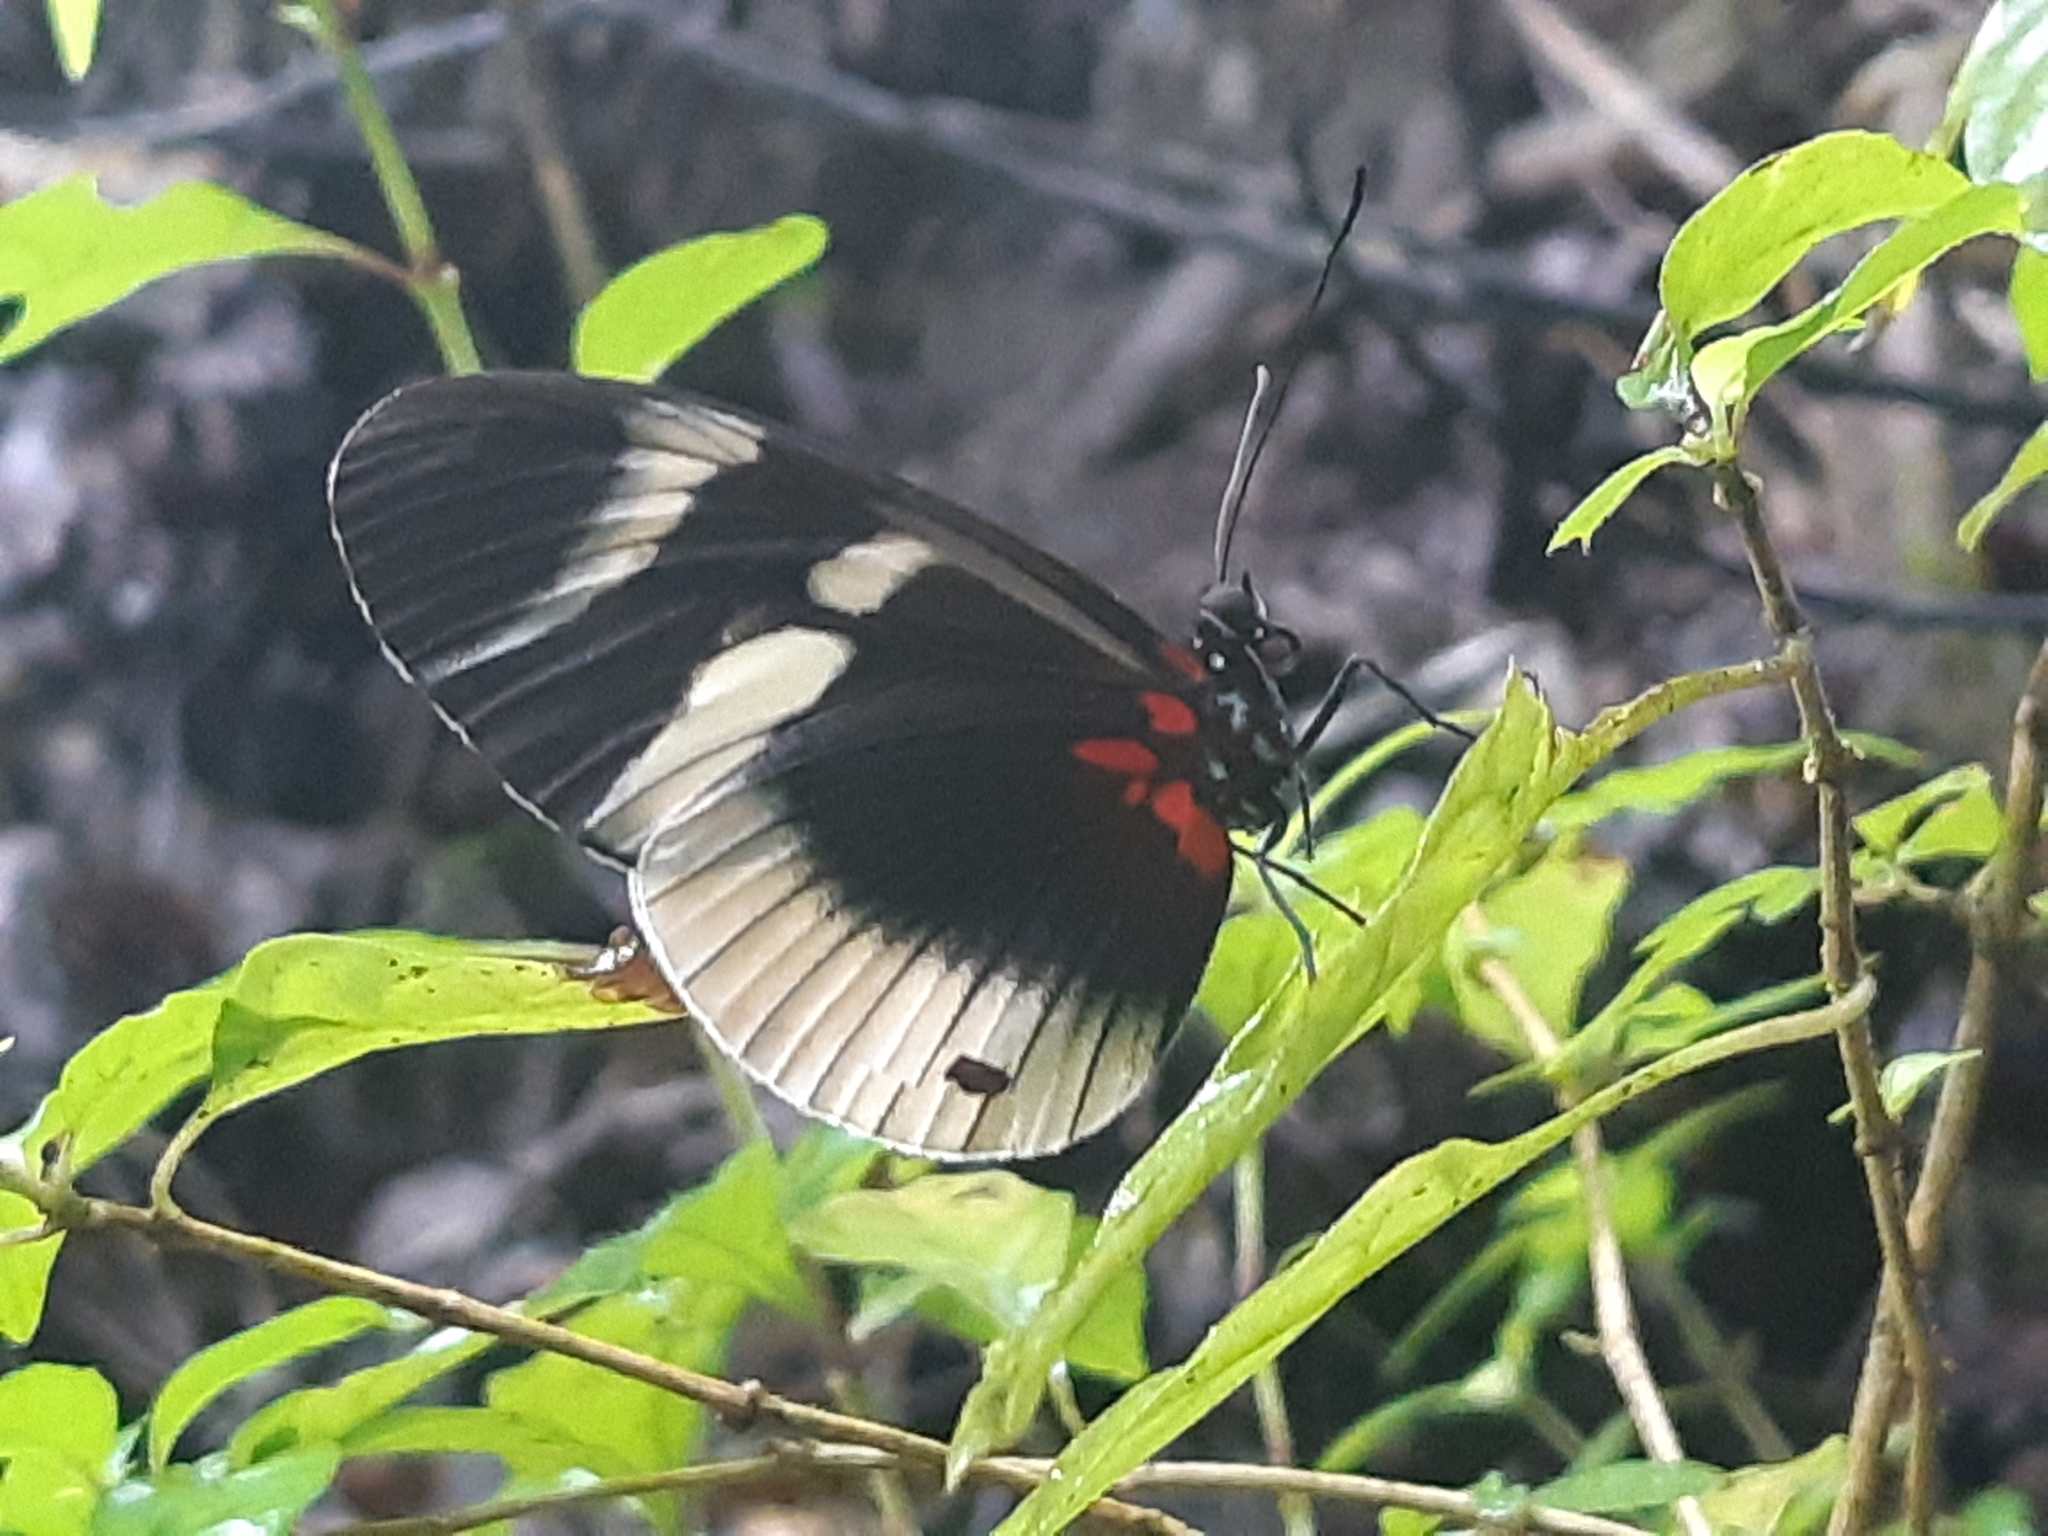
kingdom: Animalia
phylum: Arthropoda
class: Insecta
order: Lepidoptera
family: Nymphalidae
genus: Heliconius
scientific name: Heliconius eleuchia
